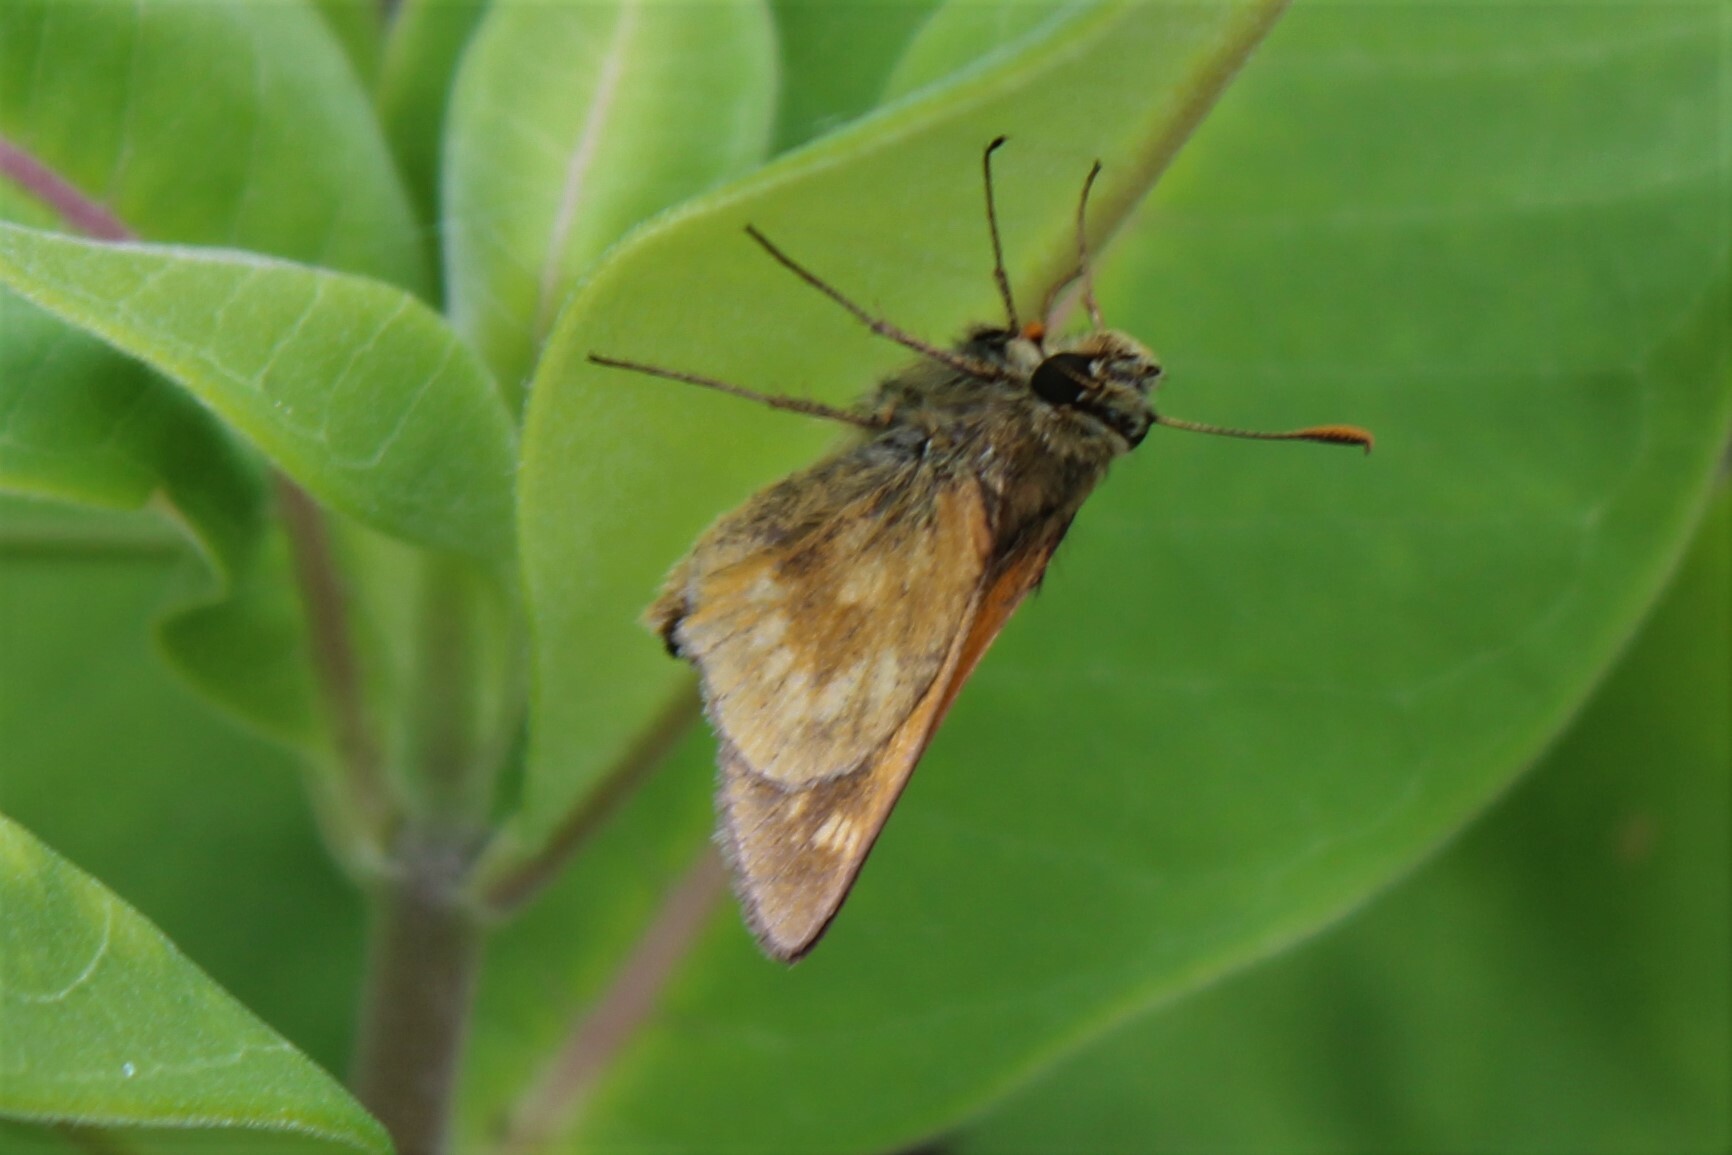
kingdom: Animalia
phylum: Arthropoda
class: Insecta
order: Lepidoptera
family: Hesperiidae
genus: Polites
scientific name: Polites mystic
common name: Long dash
